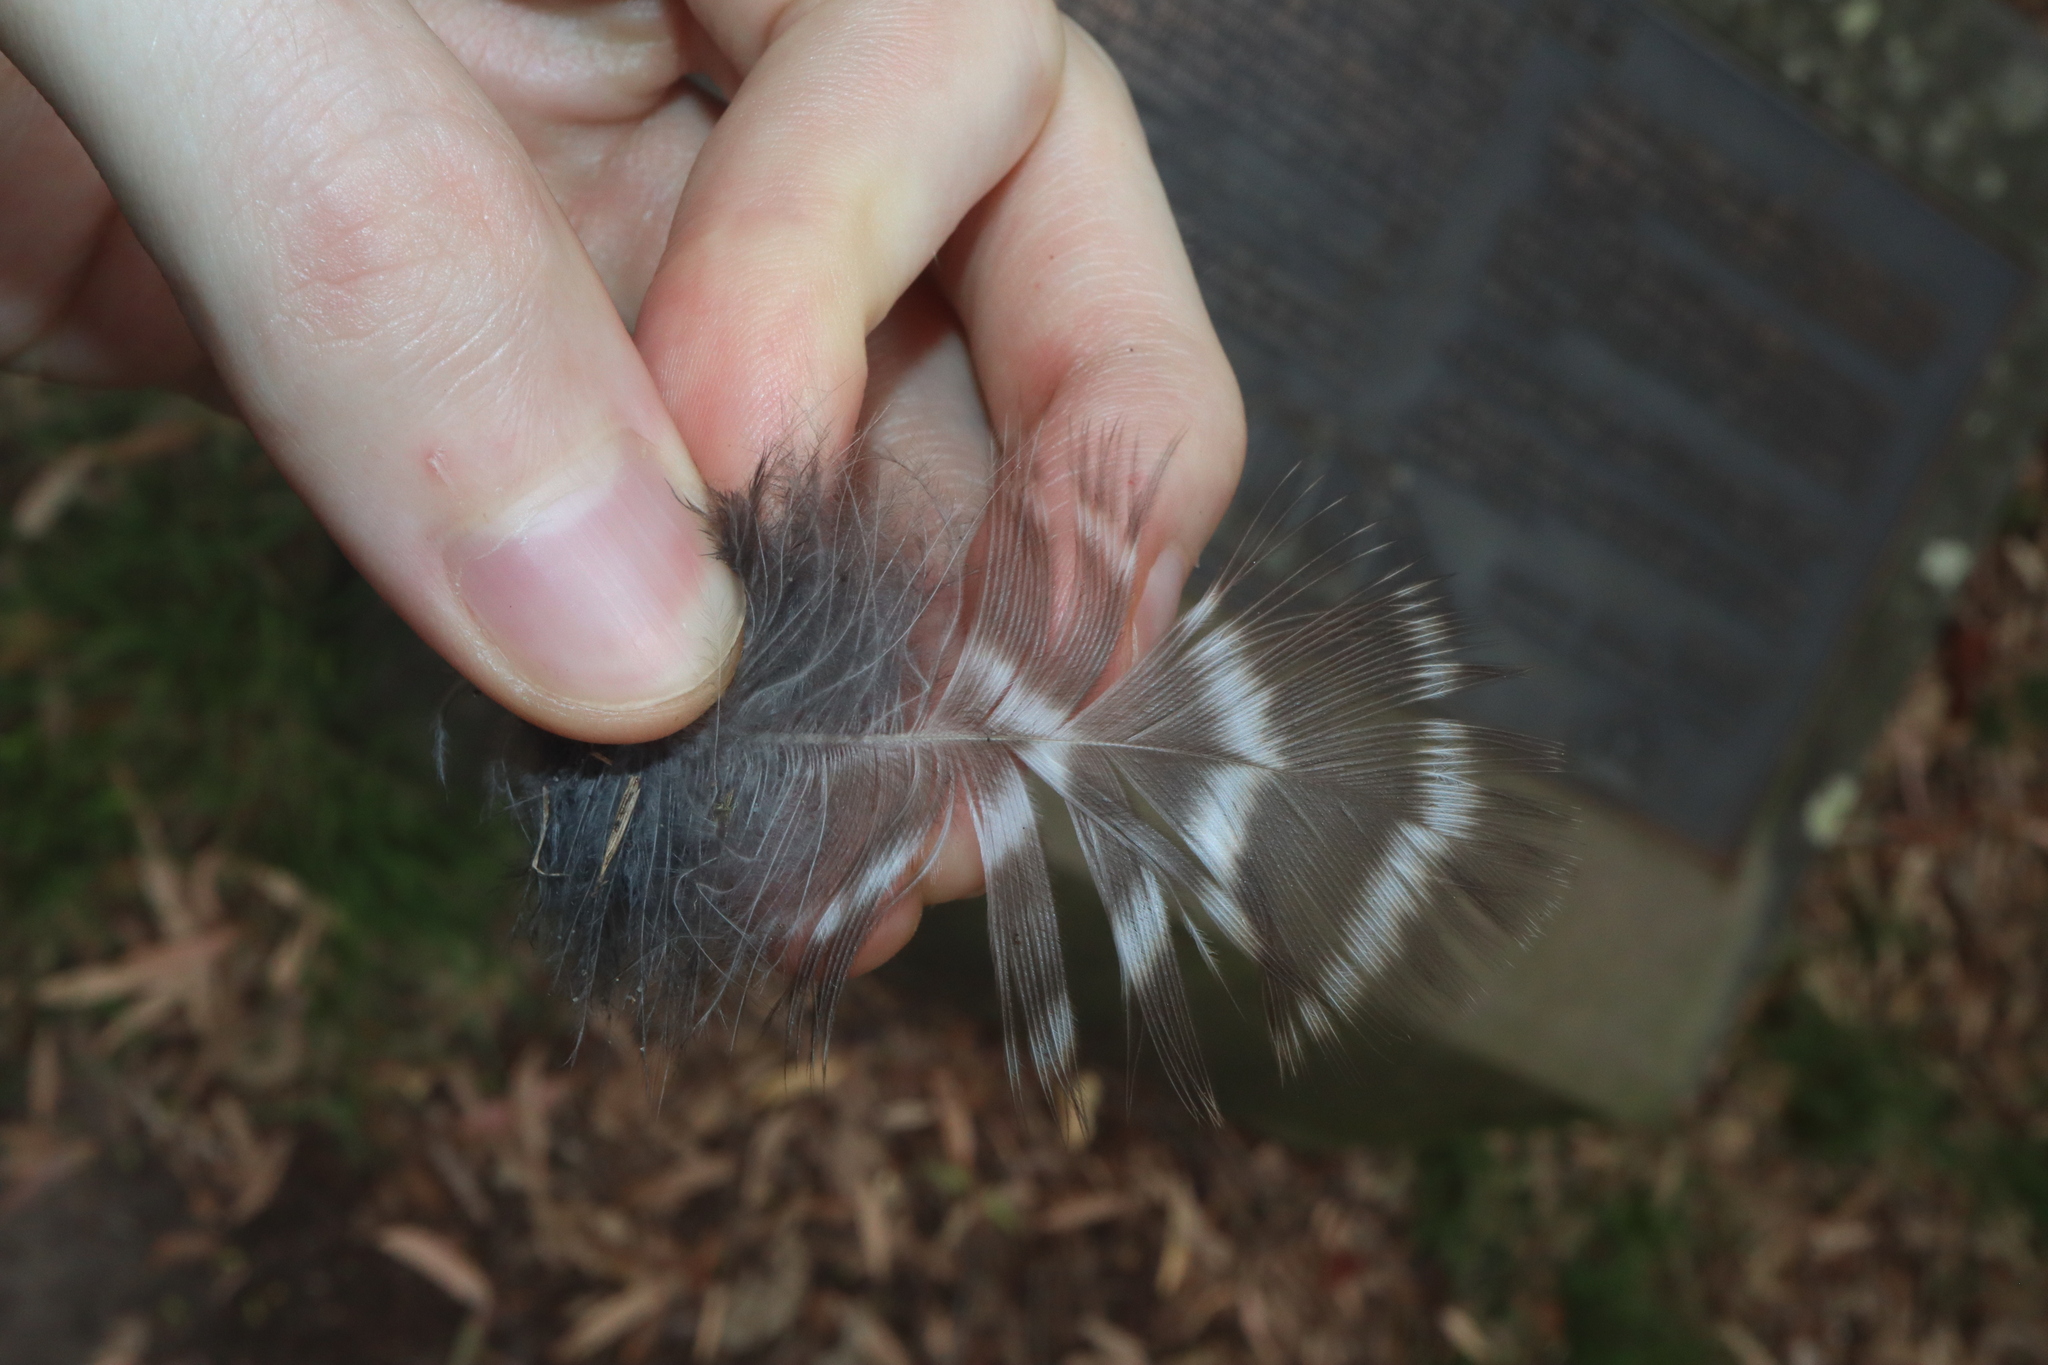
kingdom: Animalia
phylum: Chordata
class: Aves
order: Strigiformes
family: Strigidae
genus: Ninox
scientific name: Ninox strenua
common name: Powerful owl
